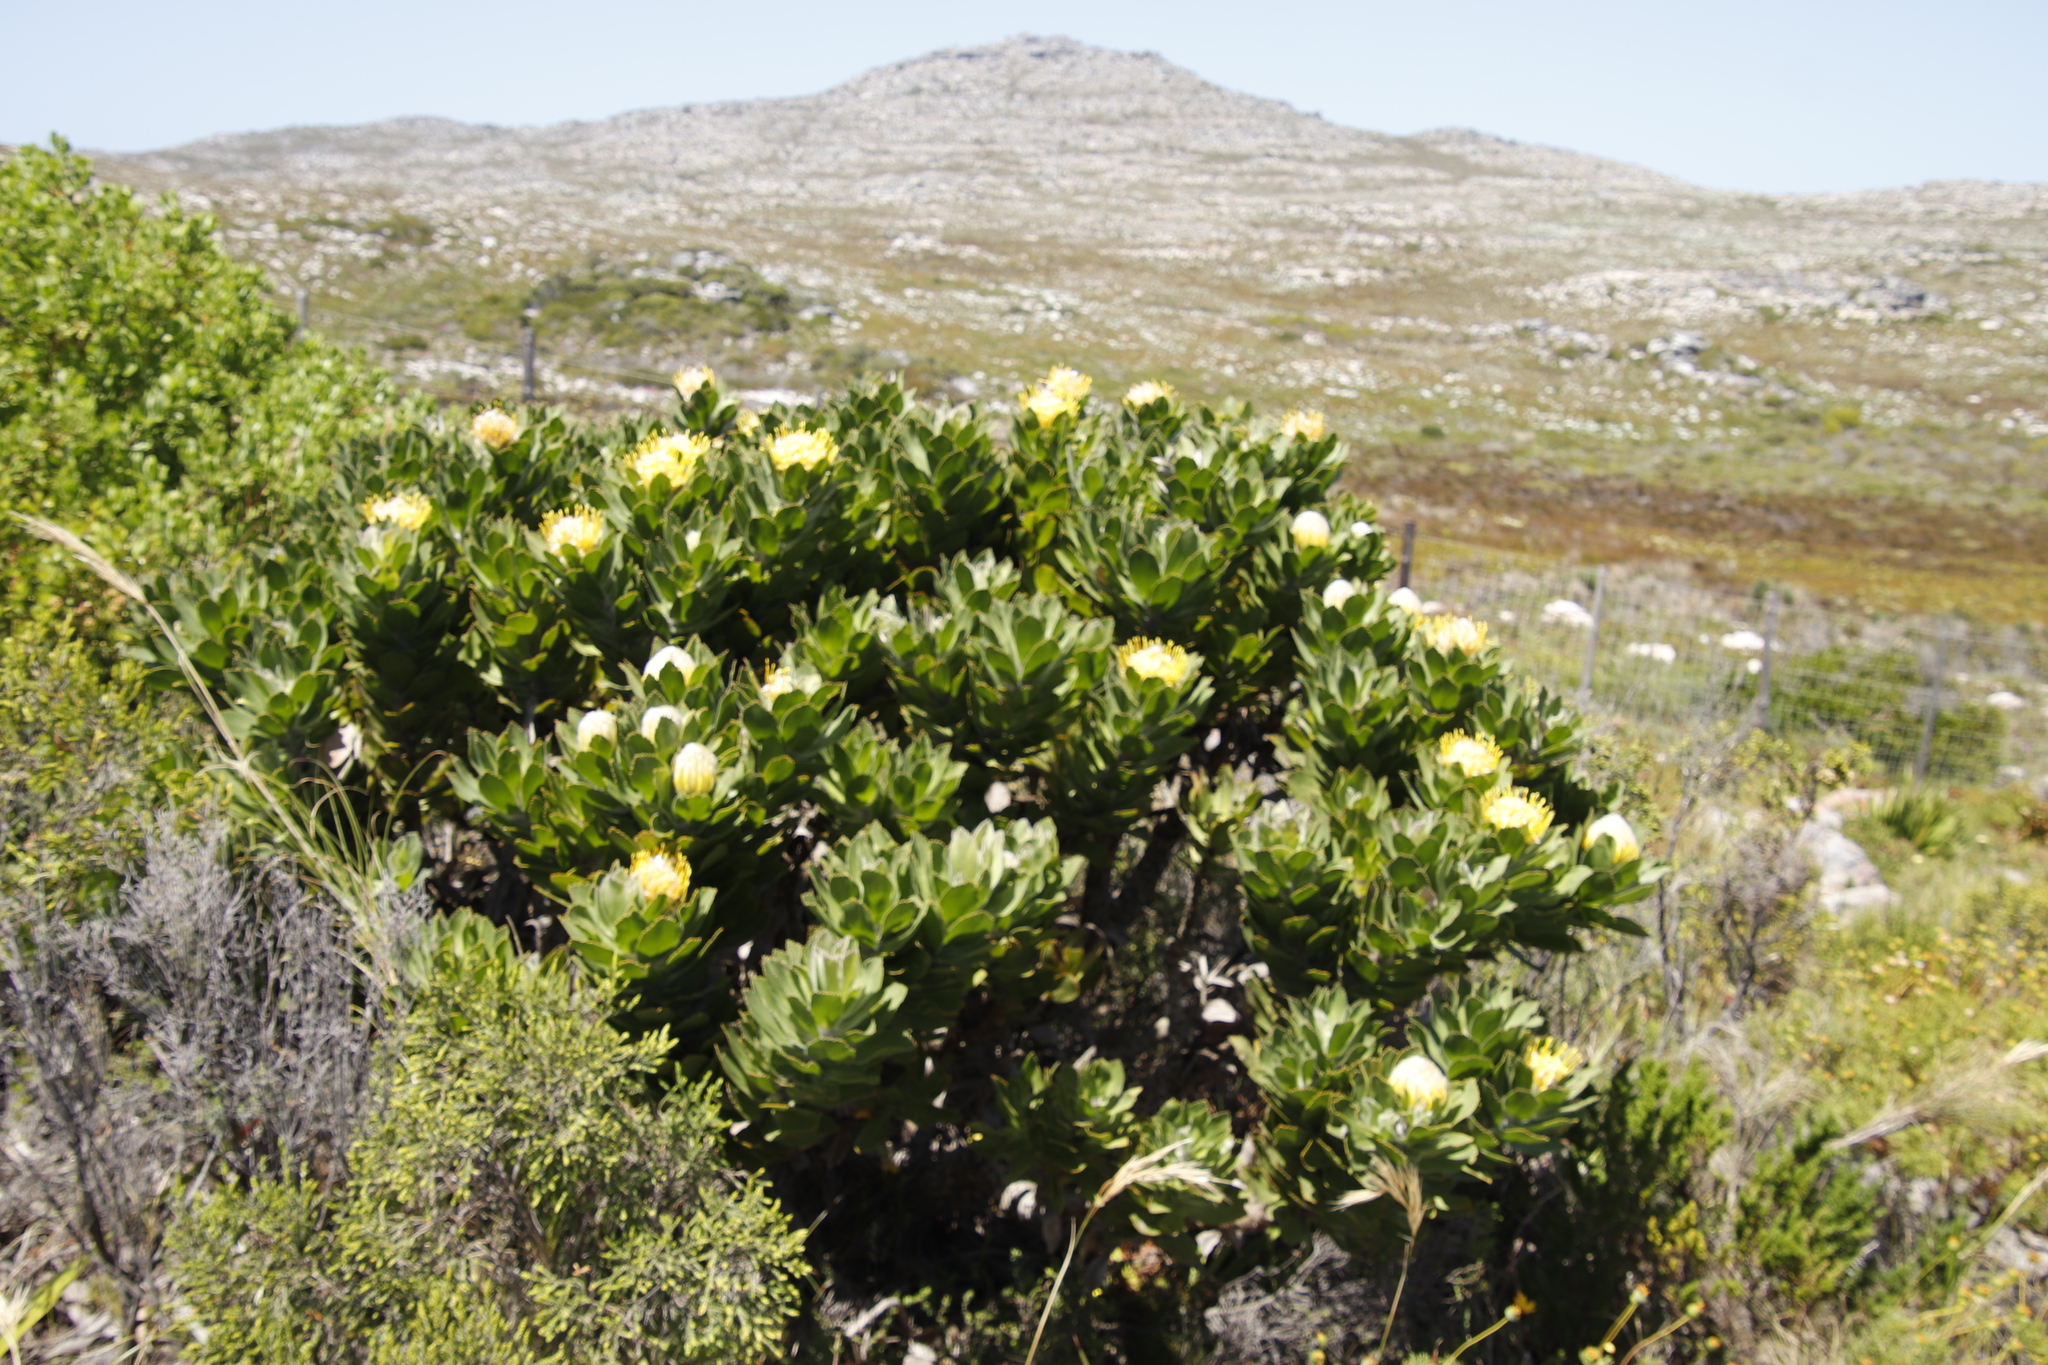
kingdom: Plantae
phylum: Tracheophyta
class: Magnoliopsida
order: Proteales
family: Proteaceae
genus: Leucospermum
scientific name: Leucospermum conocarpodendron
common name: Tree pincushion
